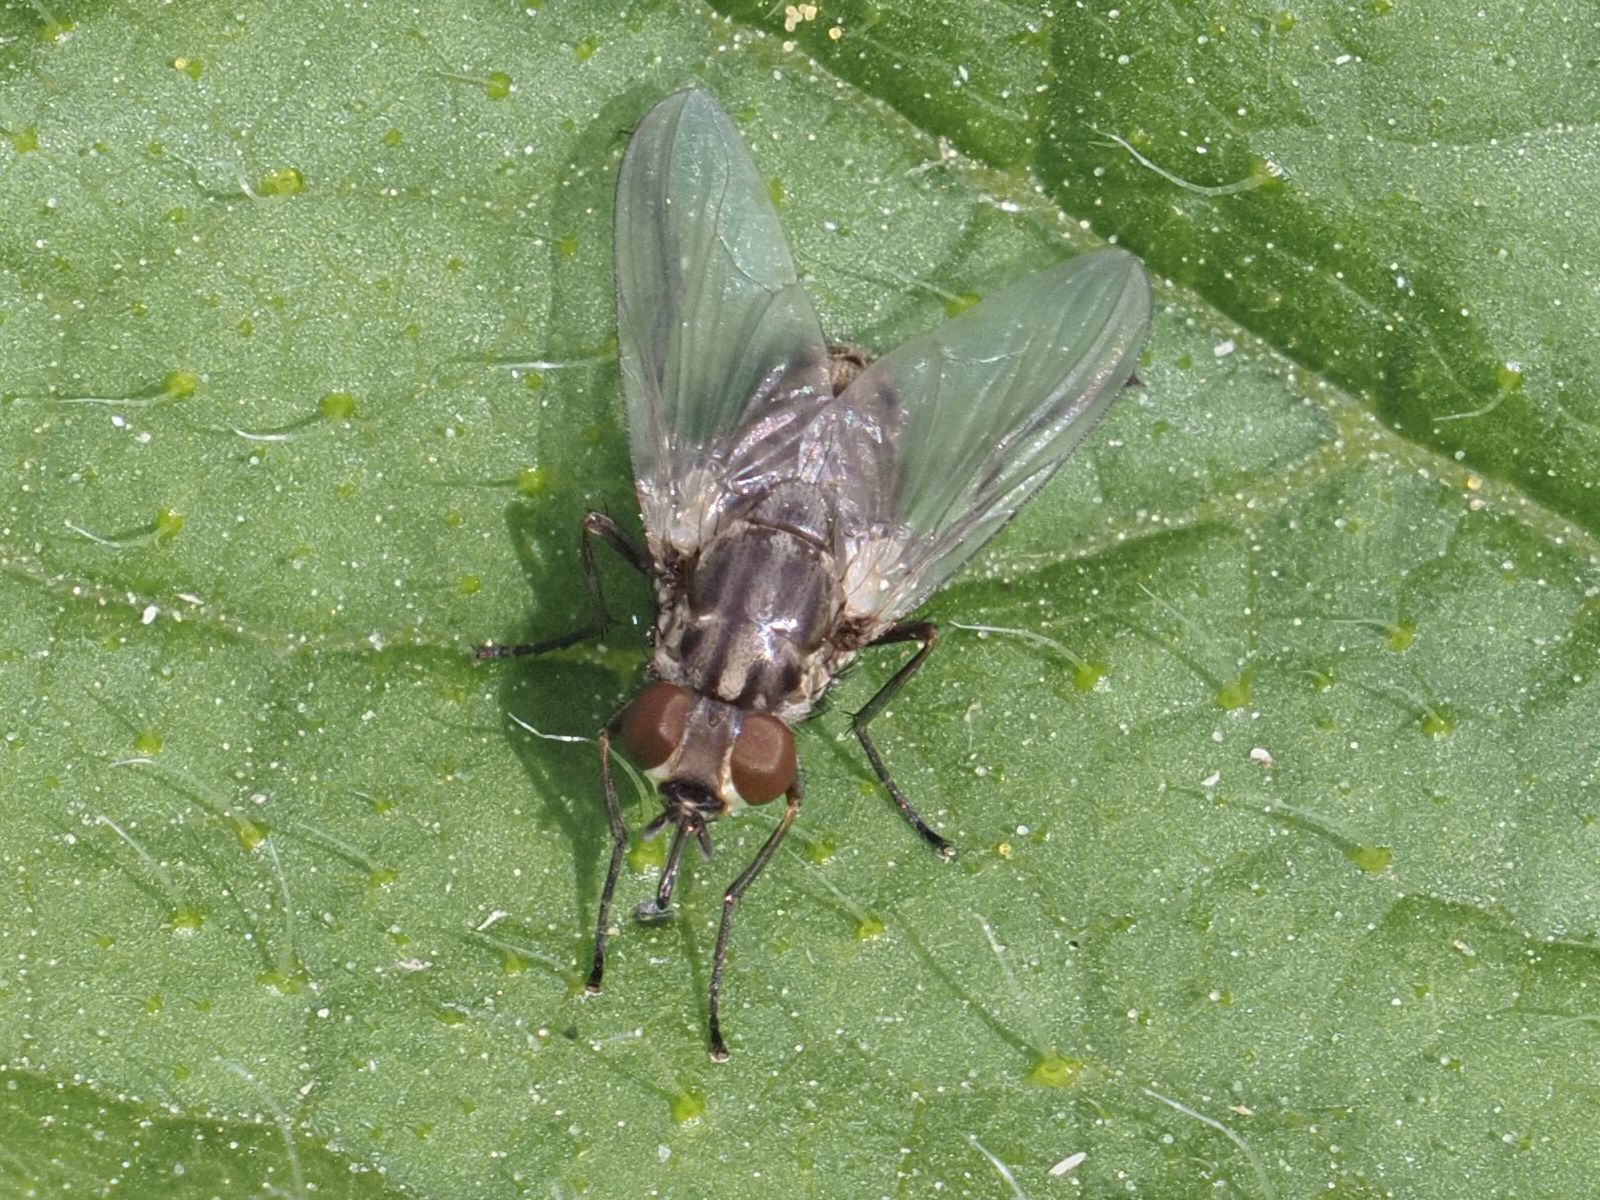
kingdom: Animalia
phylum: Arthropoda
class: Insecta
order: Diptera
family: Muscidae
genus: Stomoxys
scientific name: Stomoxys calcitrans
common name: Stable fly
